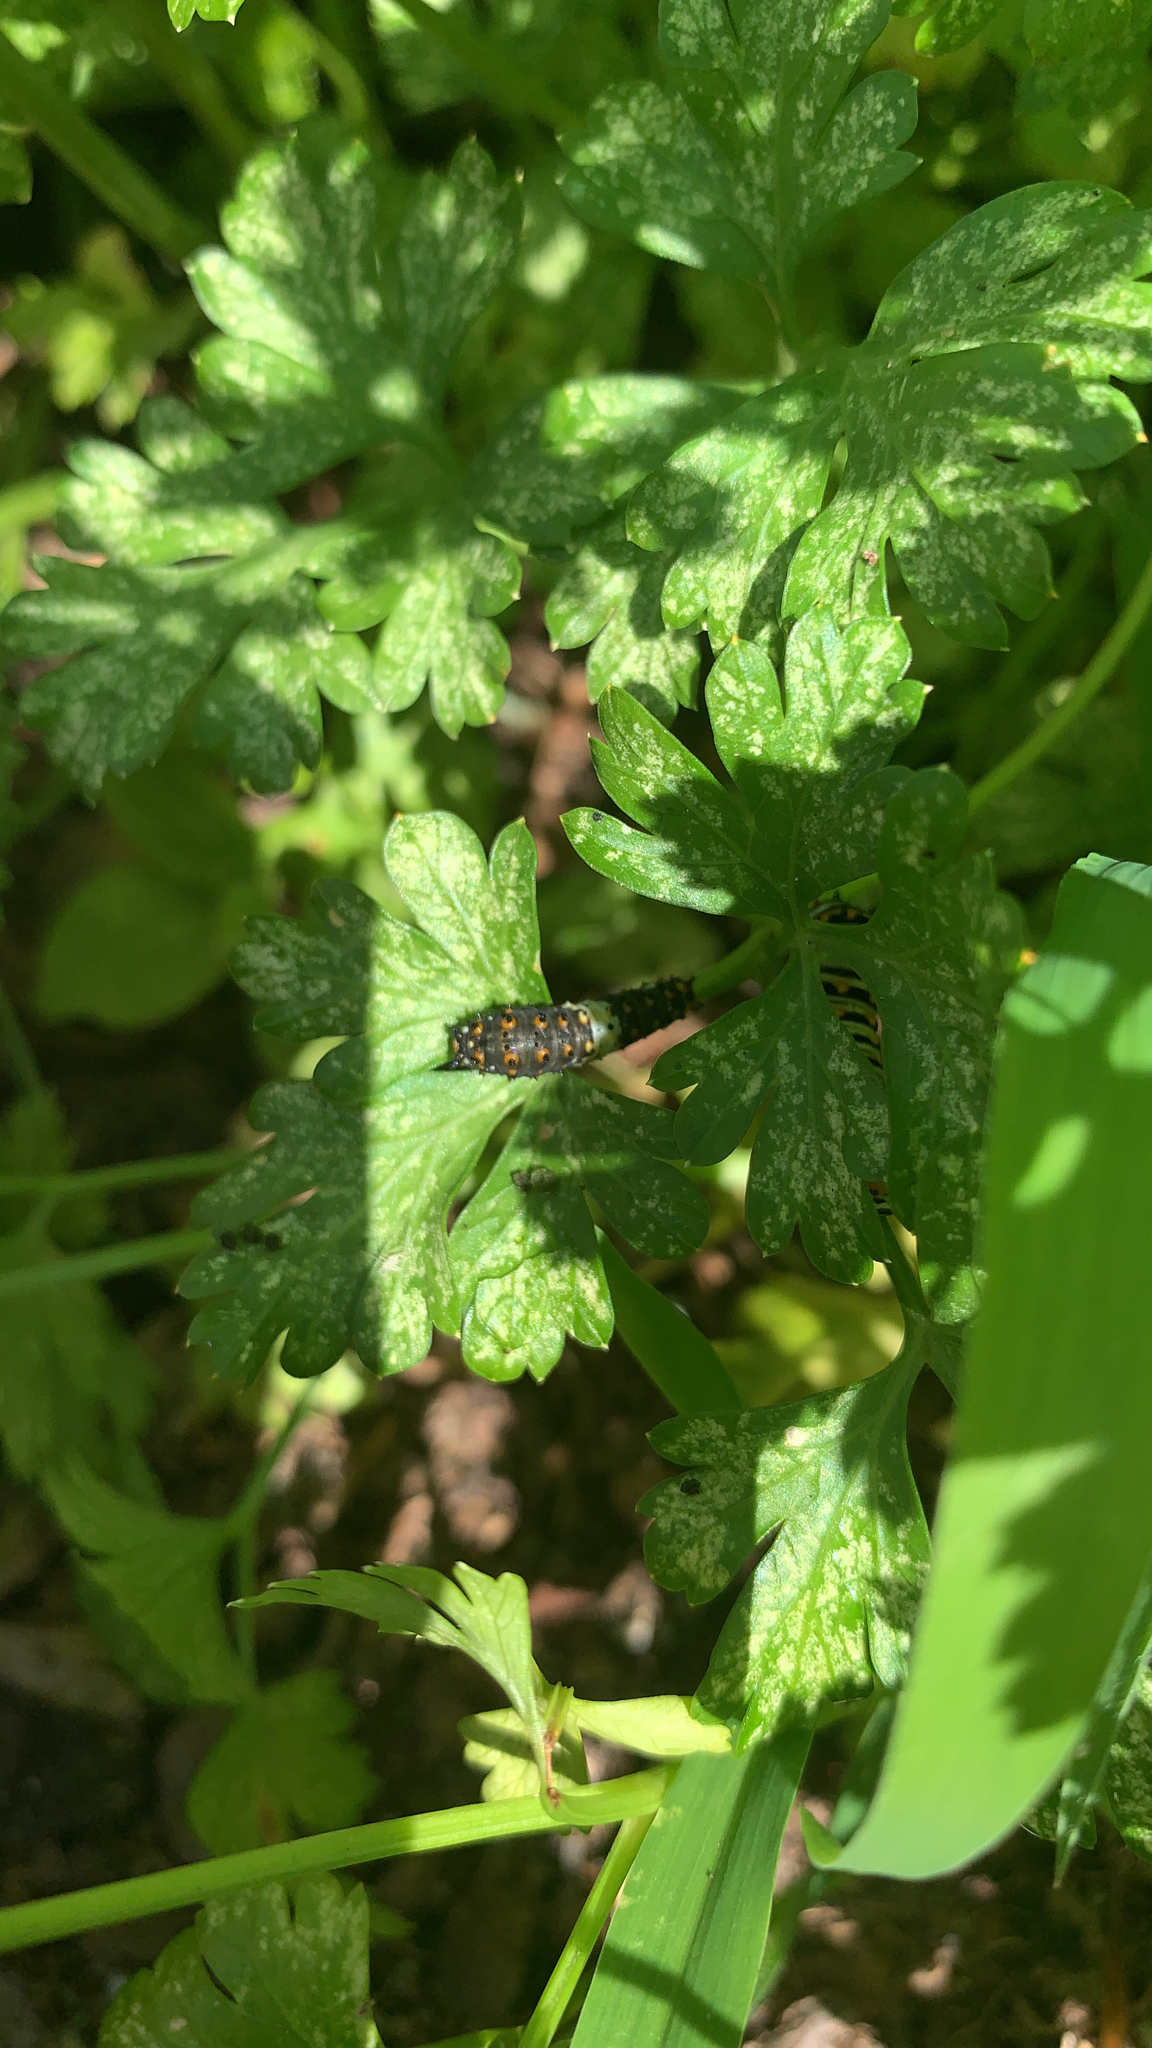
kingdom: Animalia
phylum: Arthropoda
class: Insecta
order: Lepidoptera
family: Papilionidae
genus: Papilio
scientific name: Papilio polyxenes
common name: Black swallowtail
